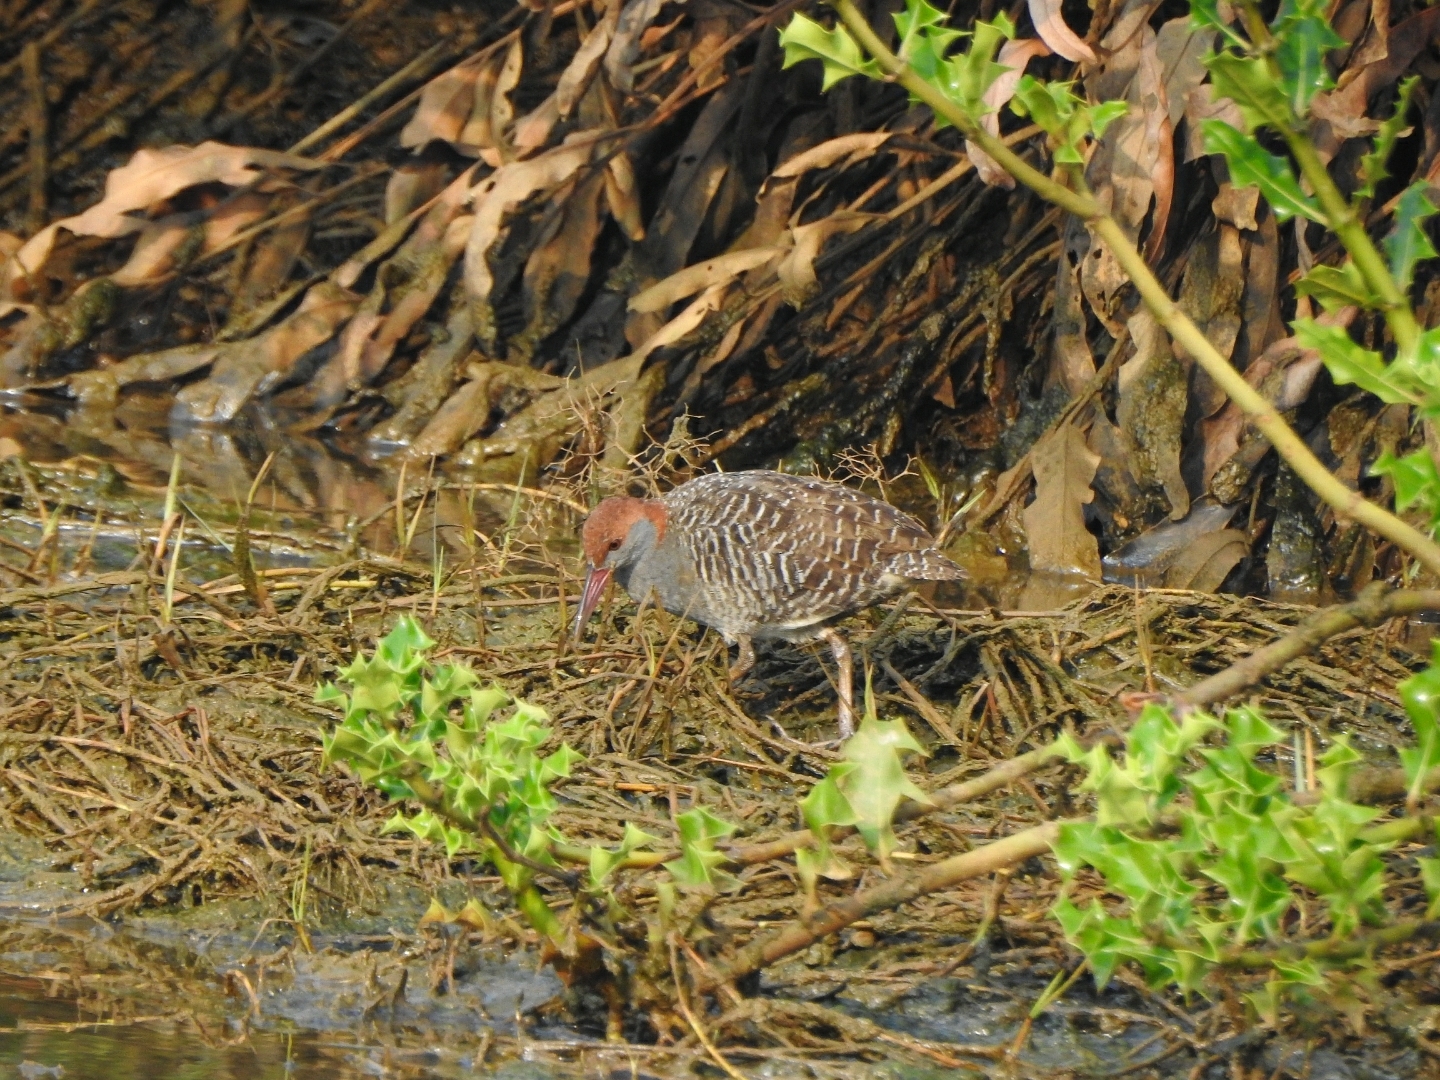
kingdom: Animalia
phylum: Chordata
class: Aves
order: Gruiformes
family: Rallidae
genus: Gallirallus
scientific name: Gallirallus striatus
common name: Slaty-breasted rail
